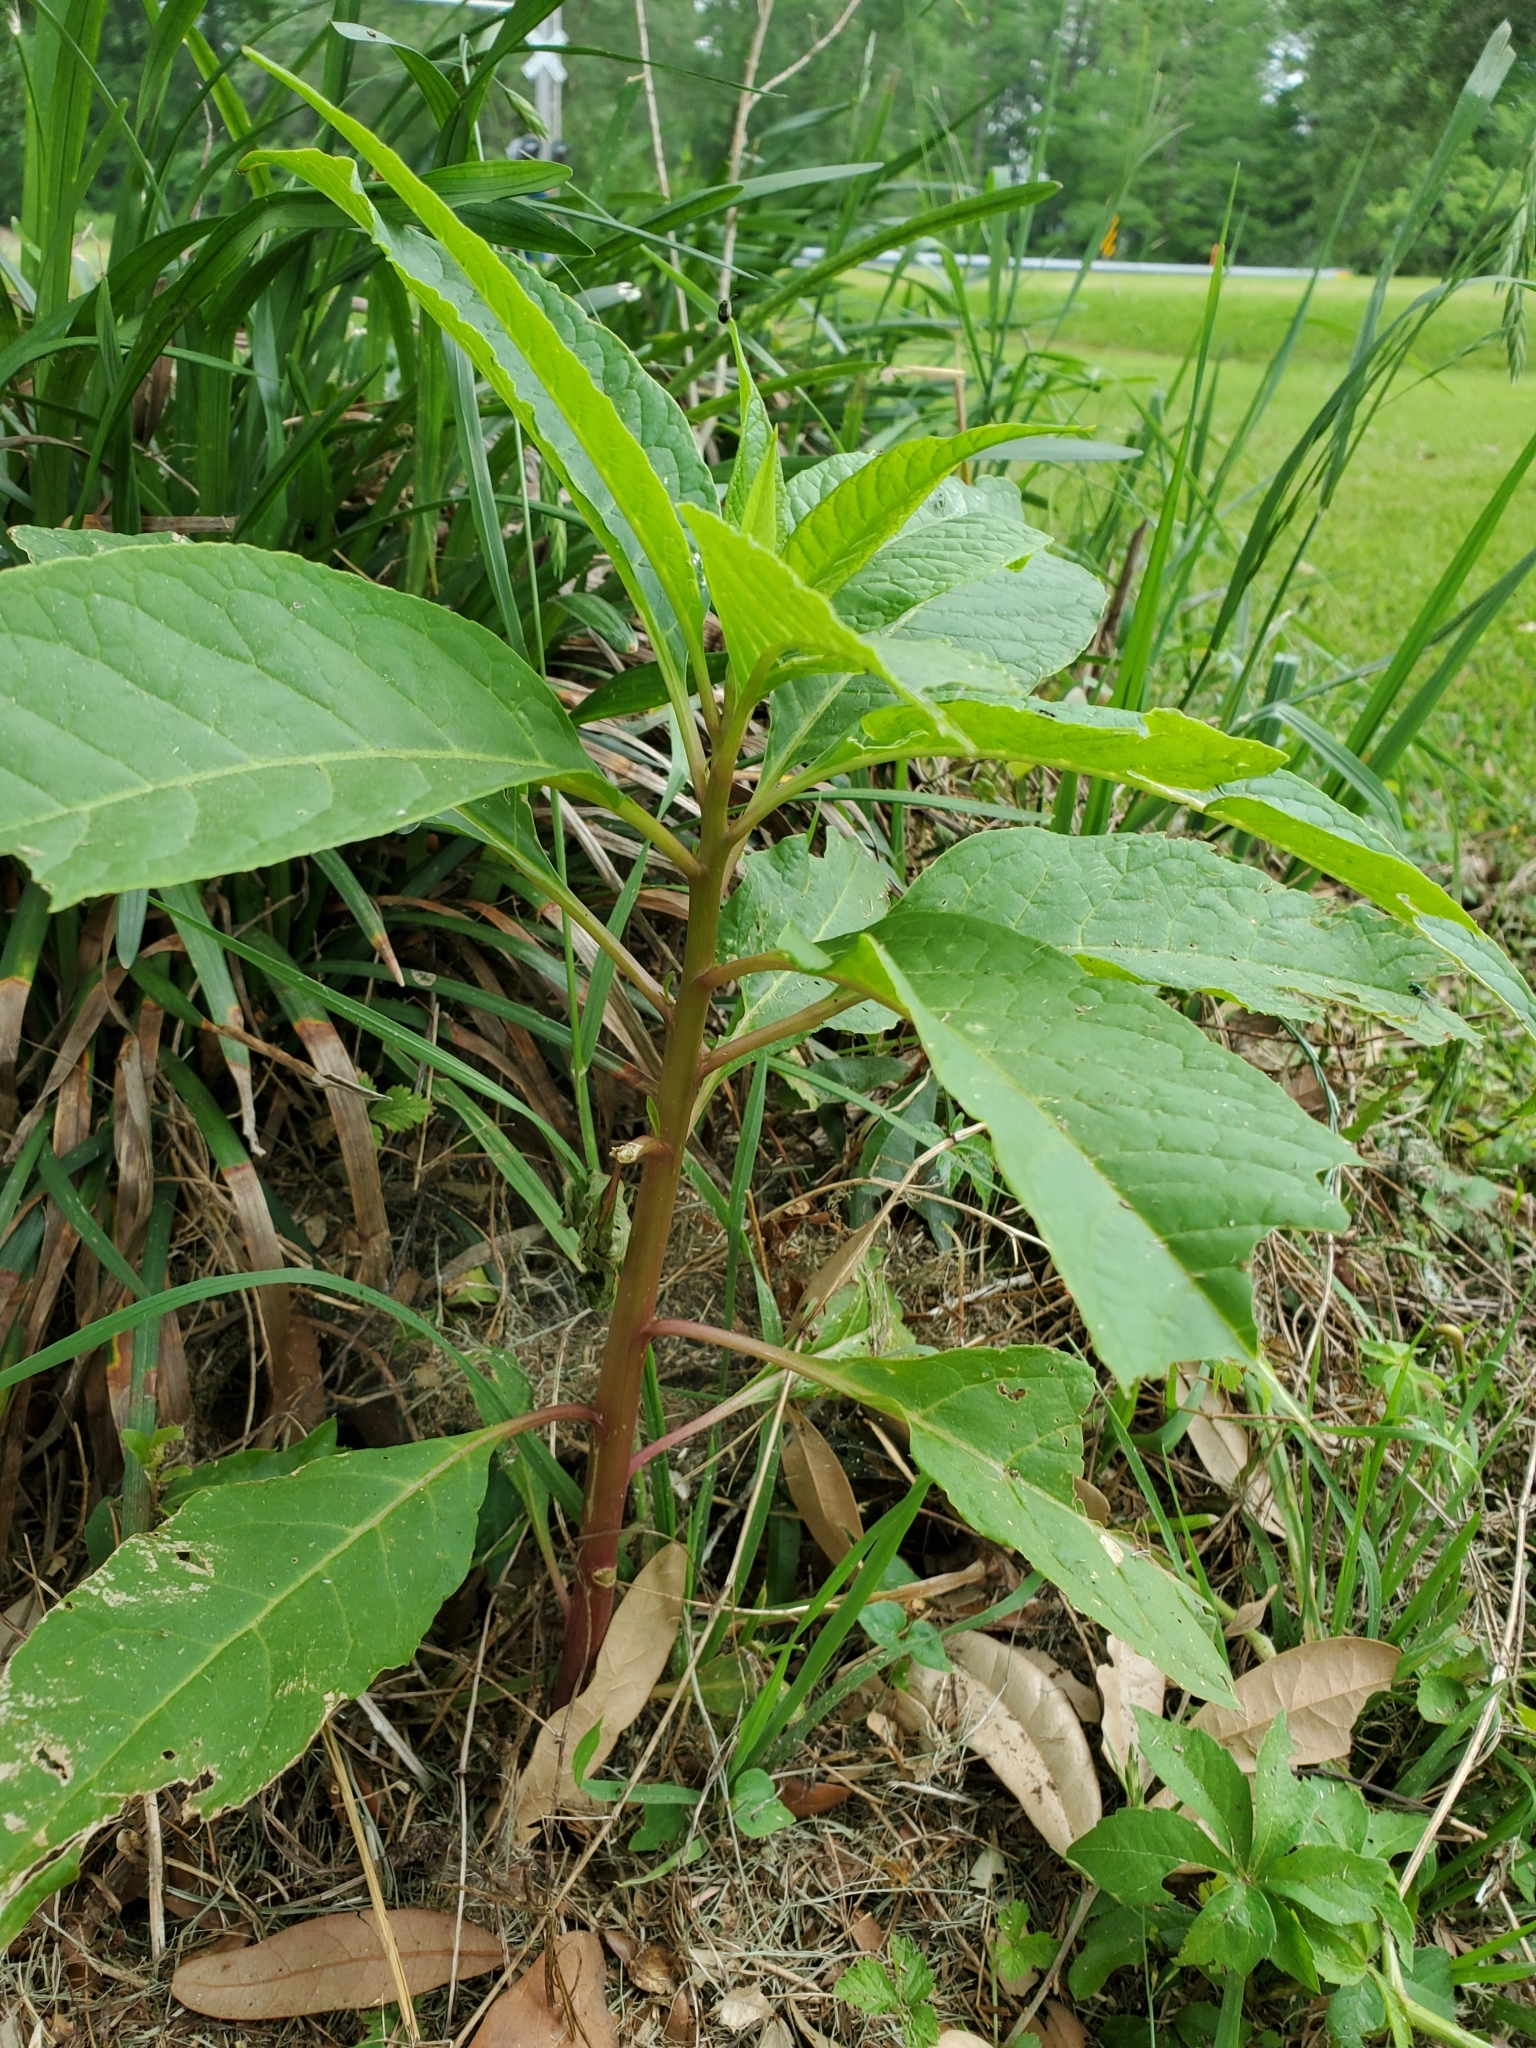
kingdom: Plantae
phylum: Tracheophyta
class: Magnoliopsida
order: Caryophyllales
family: Phytolaccaceae
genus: Phytolacca
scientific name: Phytolacca americana
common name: American pokeweed
